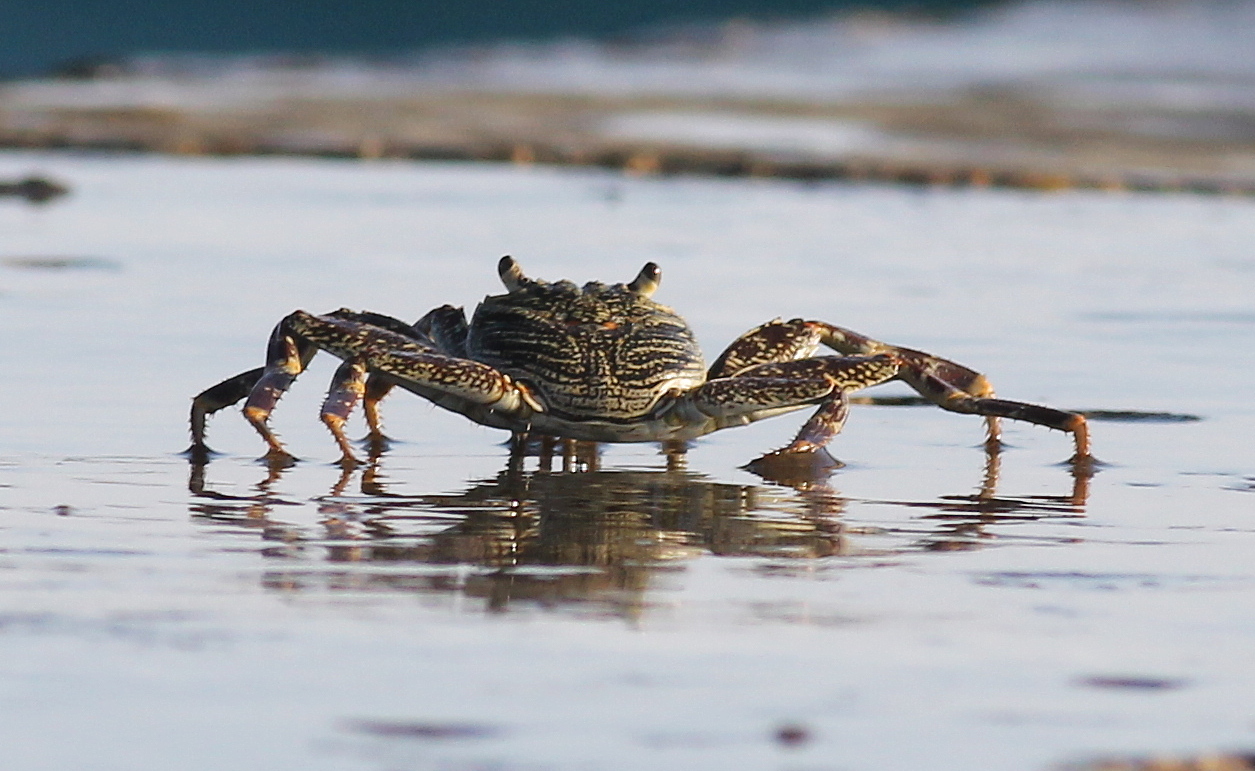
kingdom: Animalia
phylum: Arthropoda
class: Malacostraca
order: Decapoda
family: Grapsidae
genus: Grapsus
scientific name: Grapsus tenuicrustatus
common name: Natal lightfoot crab
